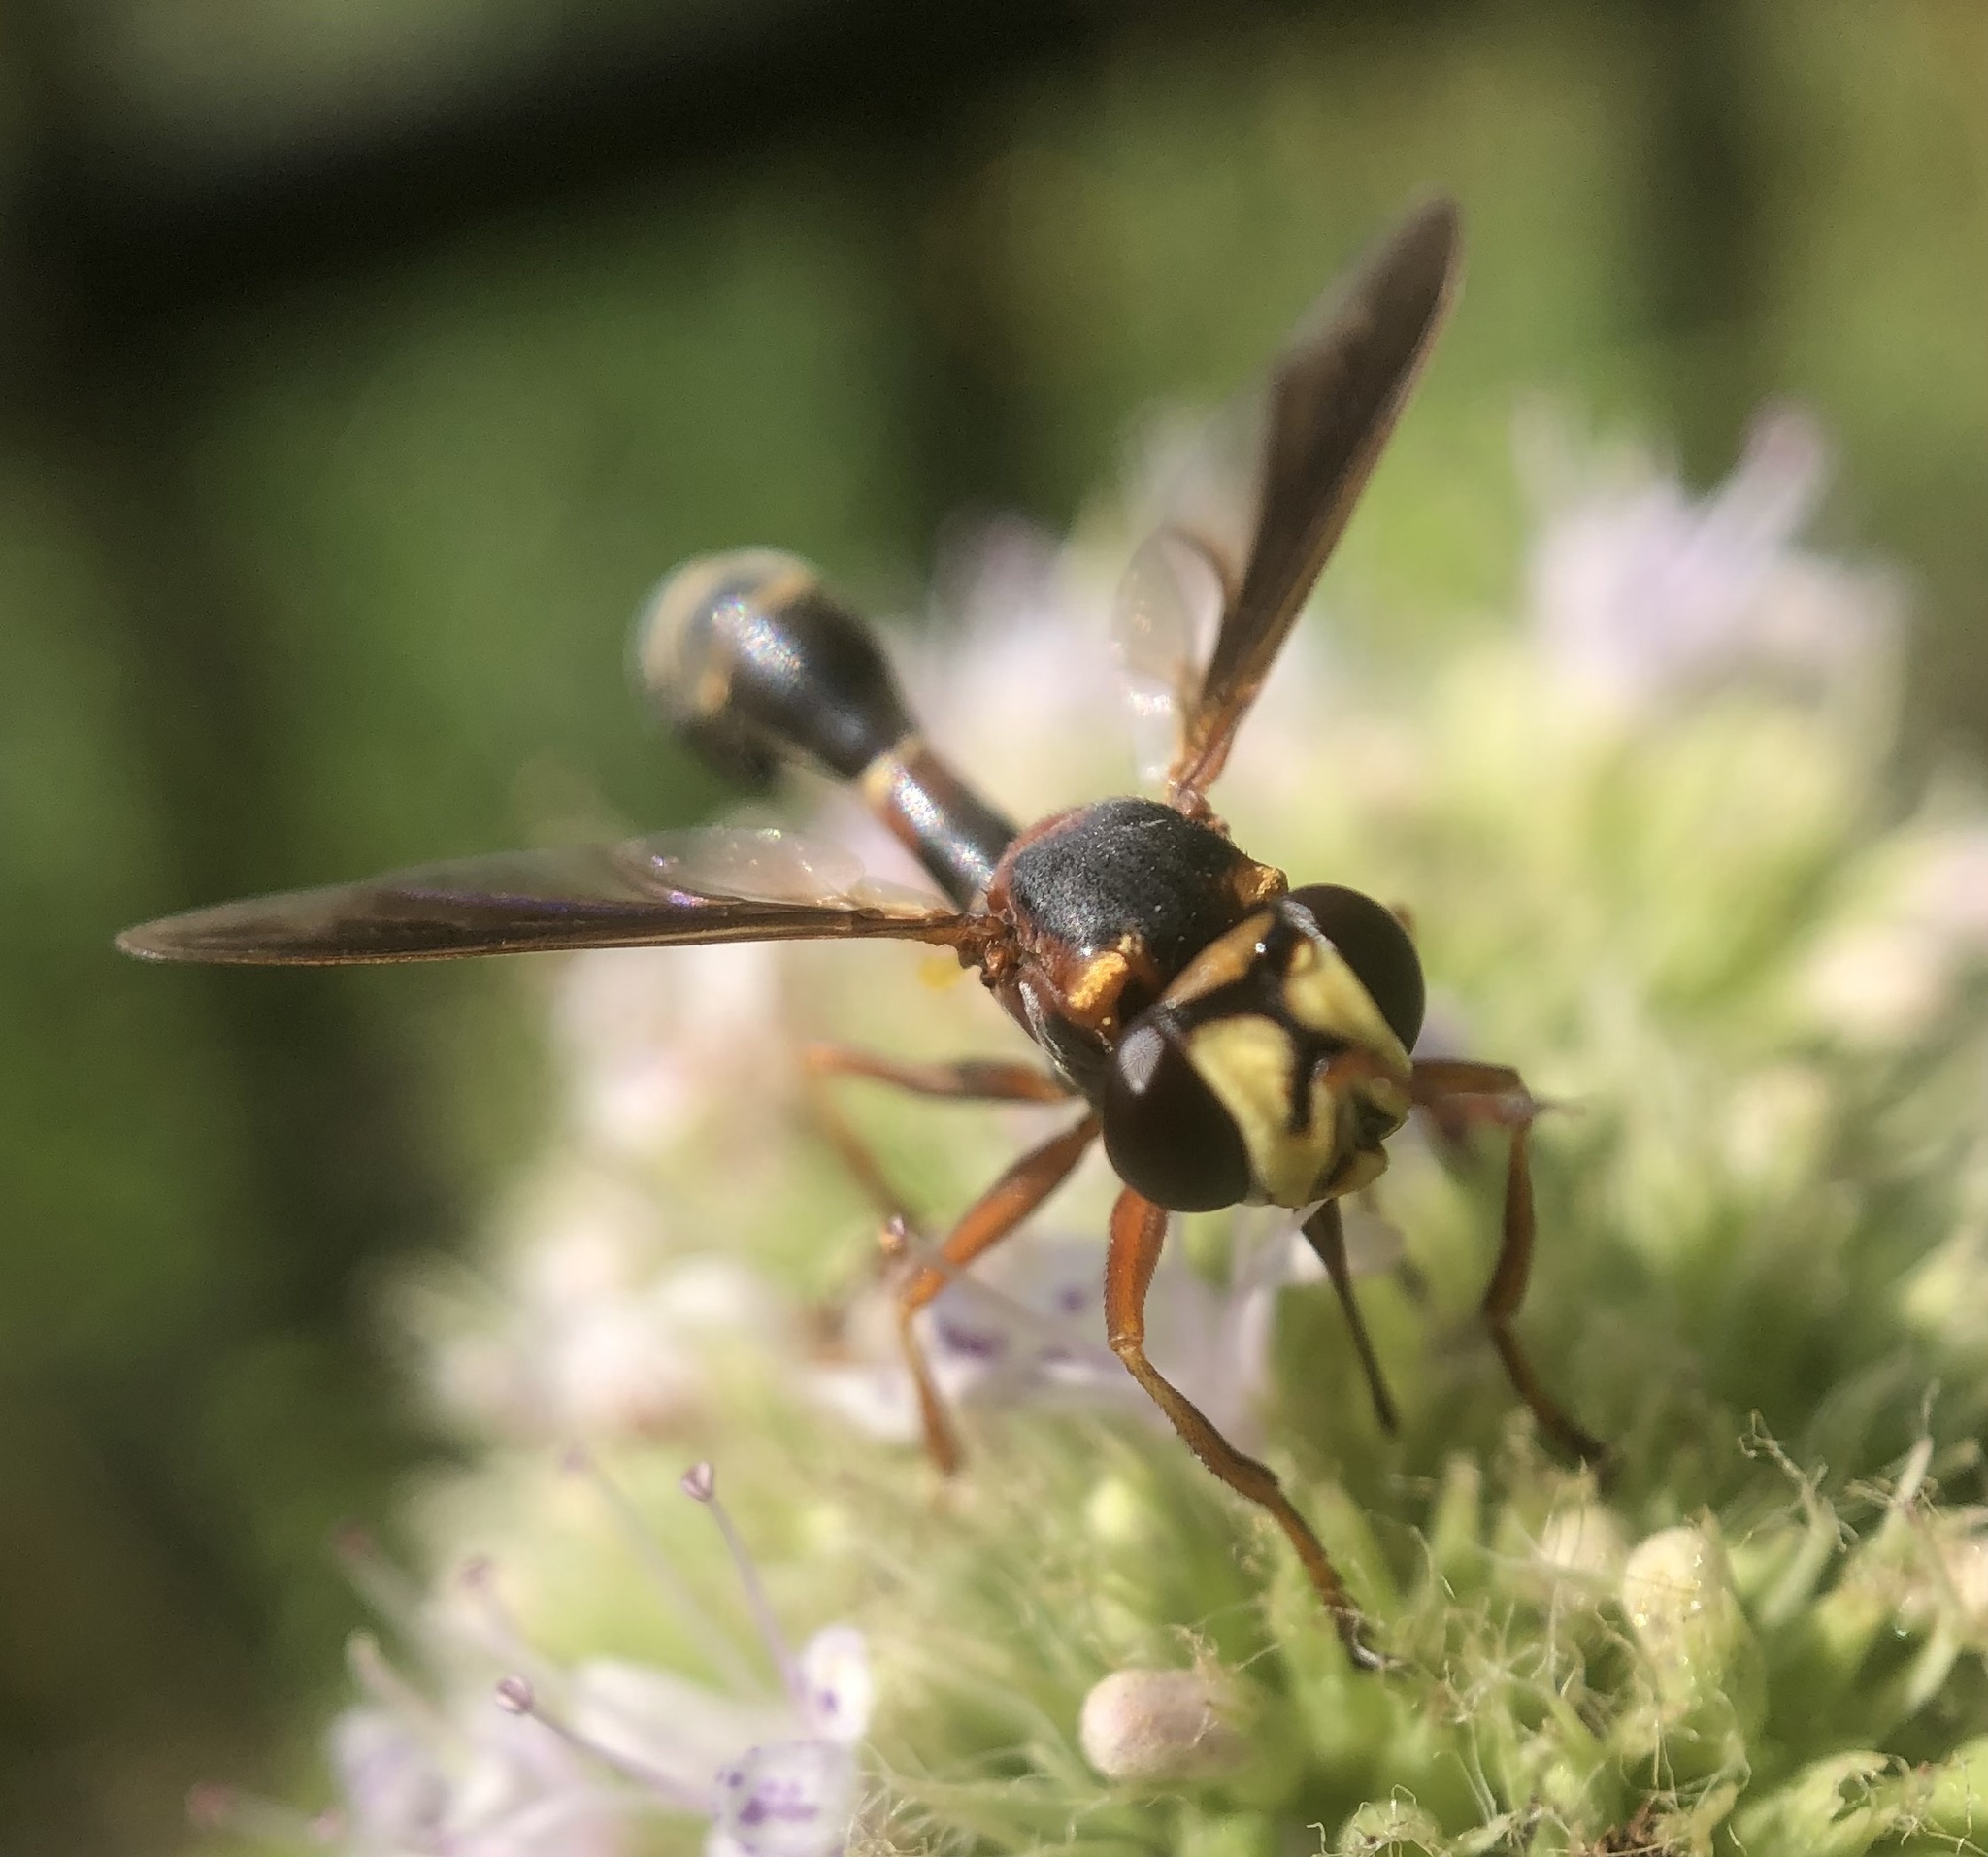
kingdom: Animalia
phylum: Arthropoda
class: Insecta
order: Diptera
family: Conopidae
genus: Physocephala
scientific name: Physocephala sagittaria
